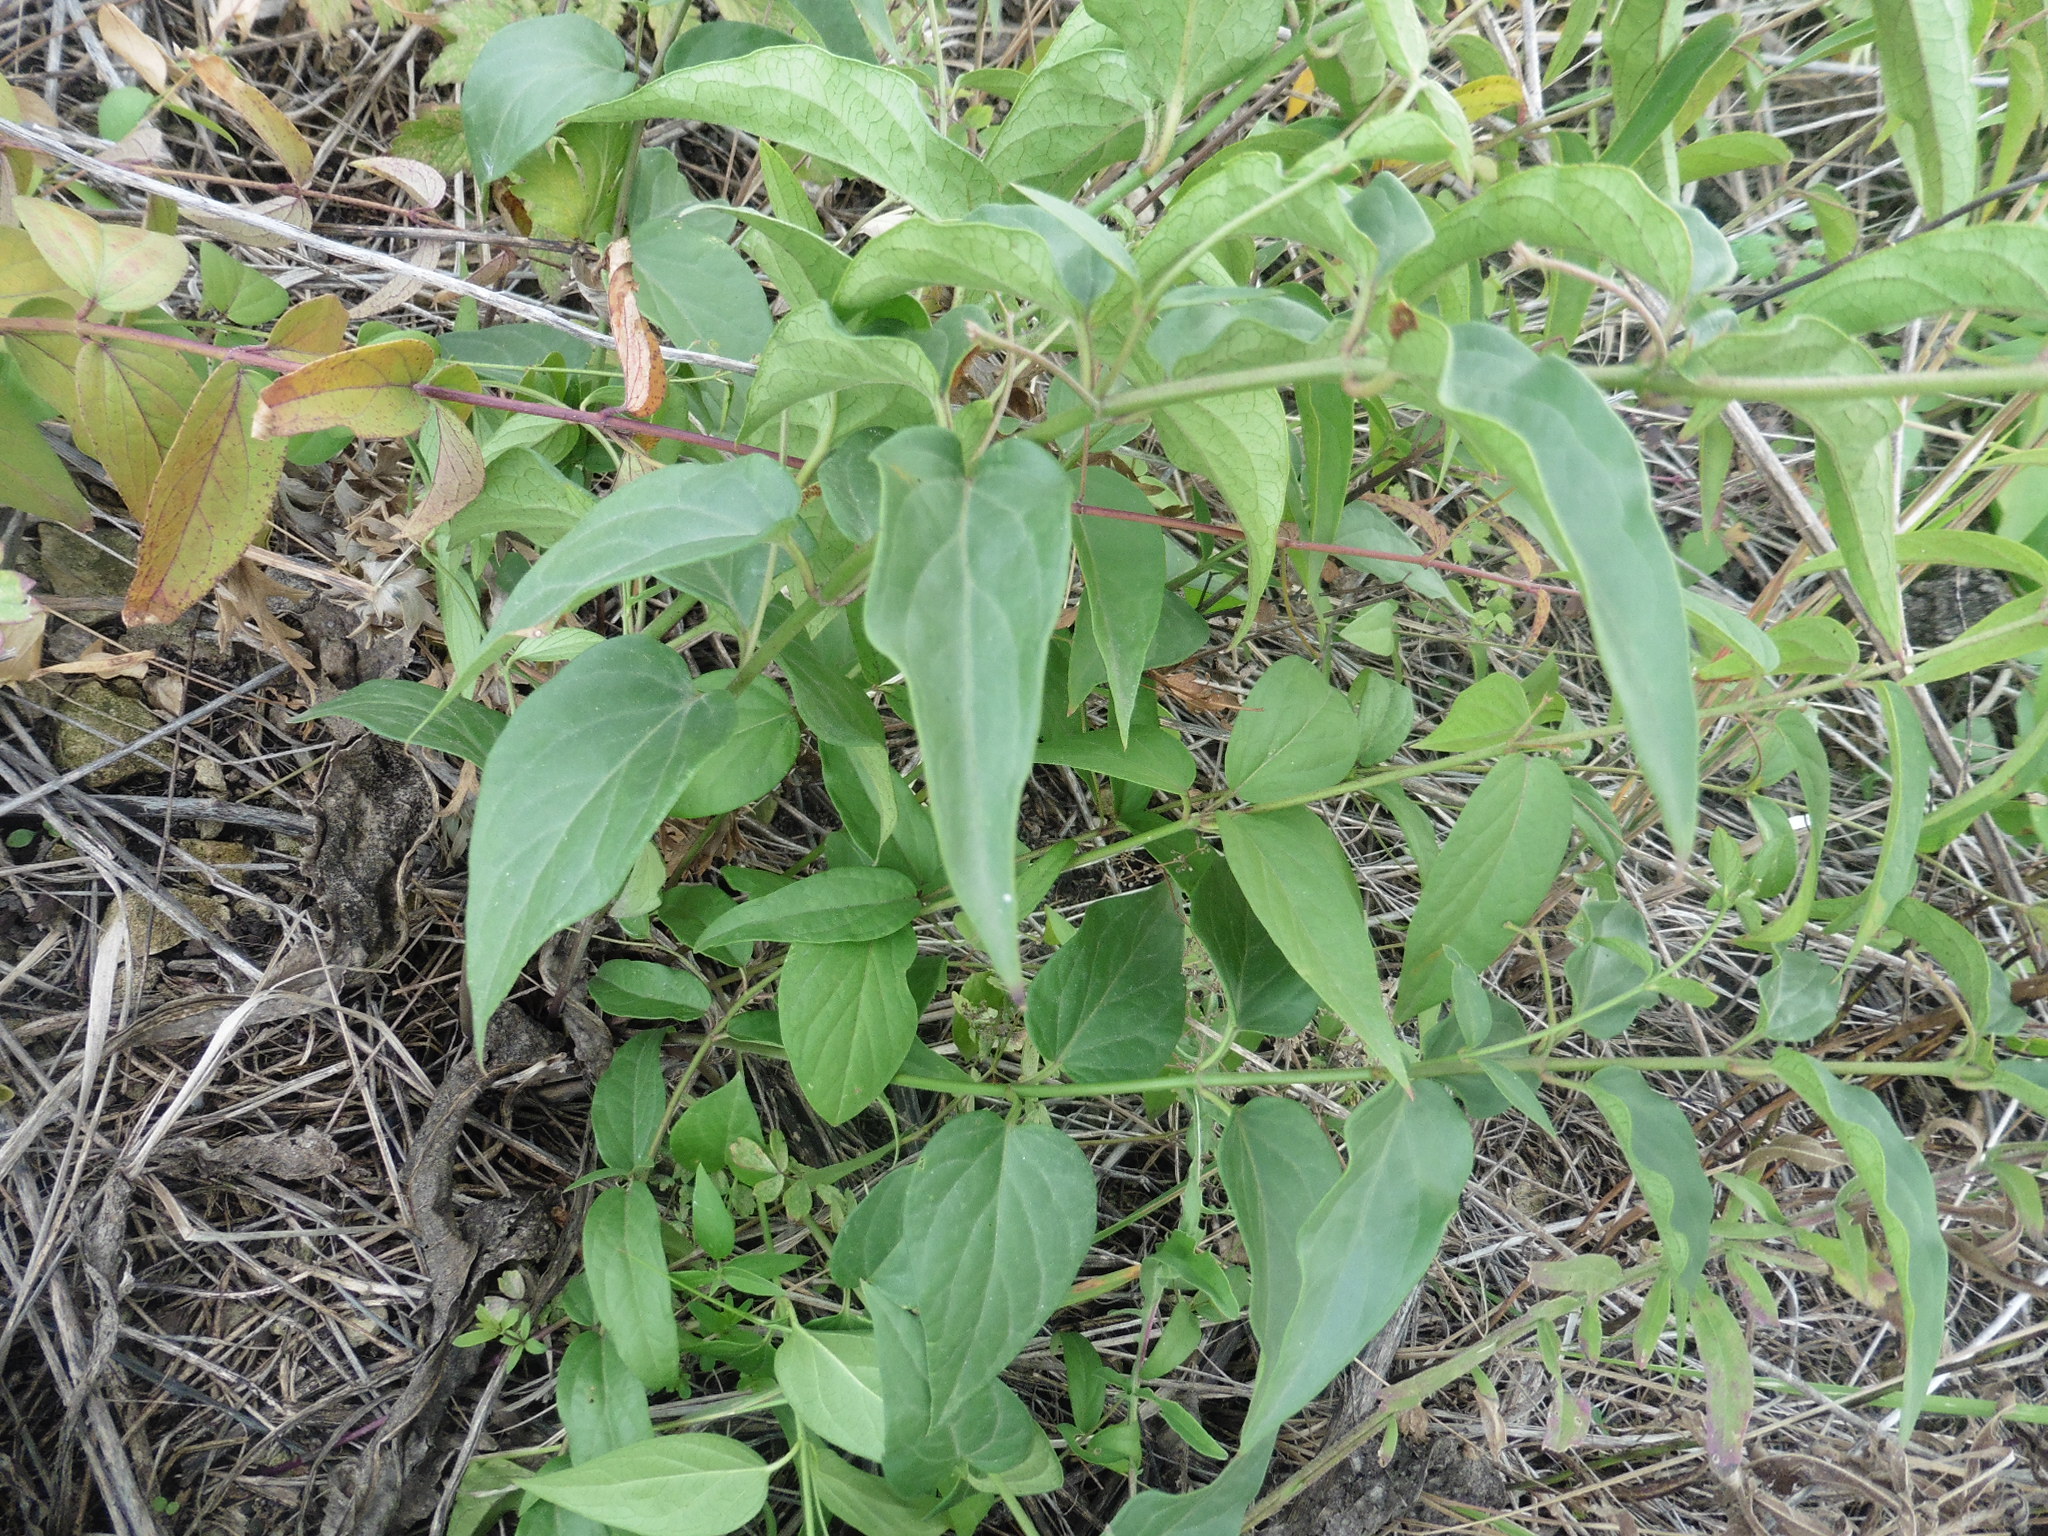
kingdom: Plantae
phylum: Tracheophyta
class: Magnoliopsida
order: Gentianales
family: Apocynaceae
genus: Vincetoxicum
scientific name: Vincetoxicum hirundinaria
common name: White swallowwort
